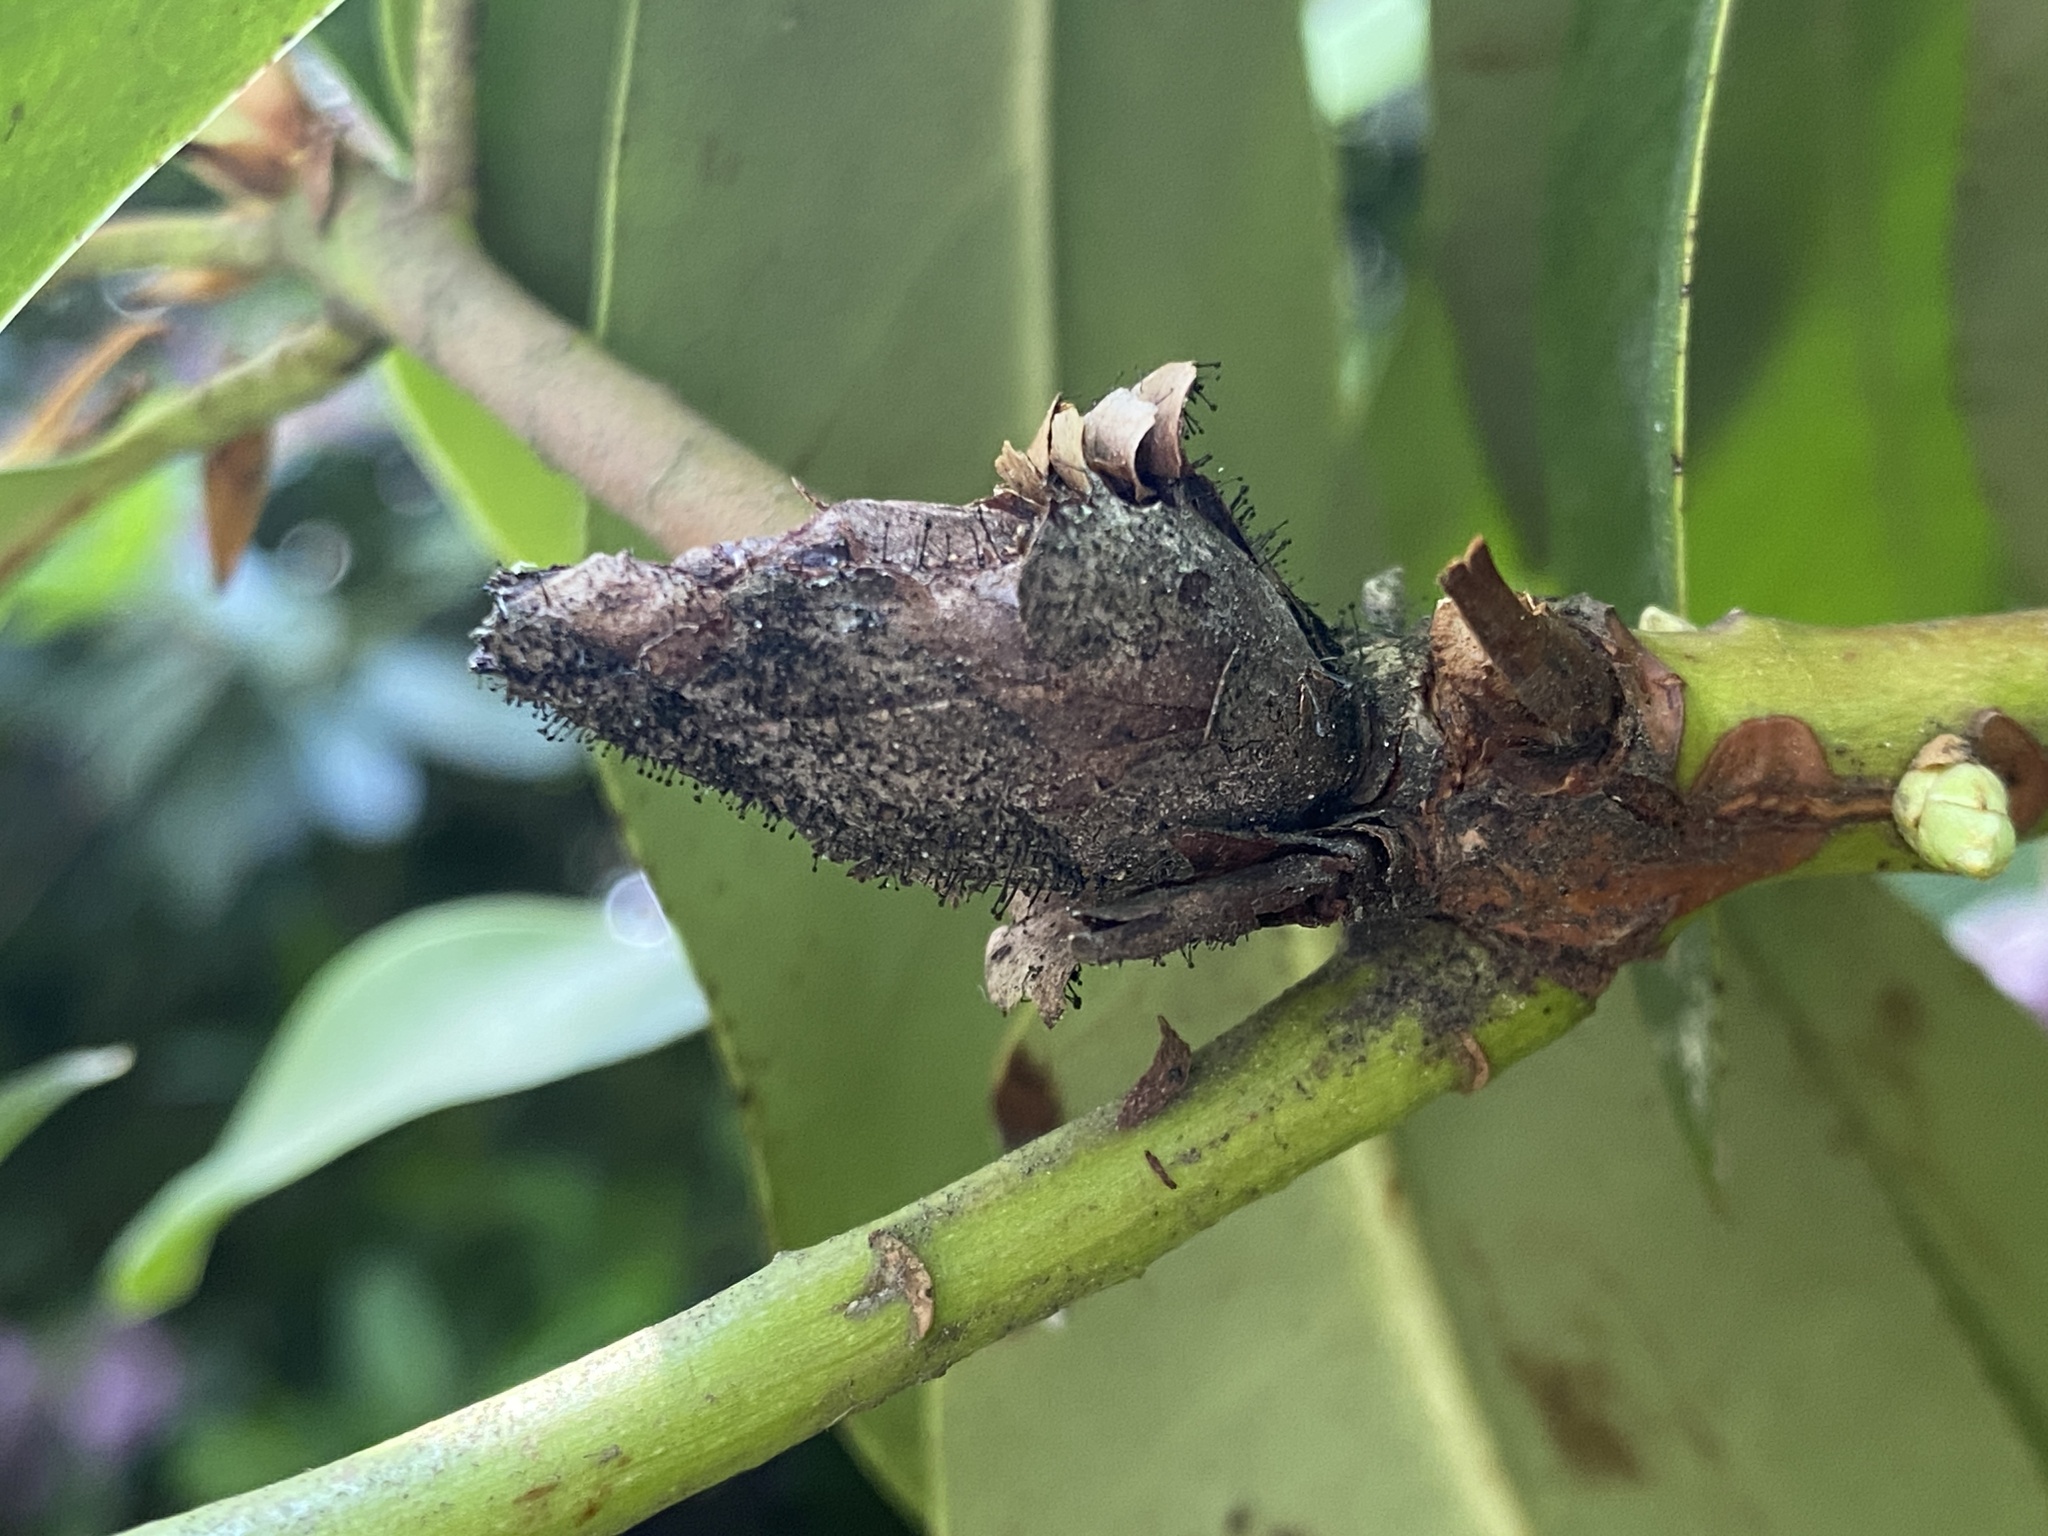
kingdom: Fungi
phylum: Ascomycota
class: Dothideomycetes
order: Pleosporales
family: Melanommataceae
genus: Seifertia
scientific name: Seifertia azaleae
